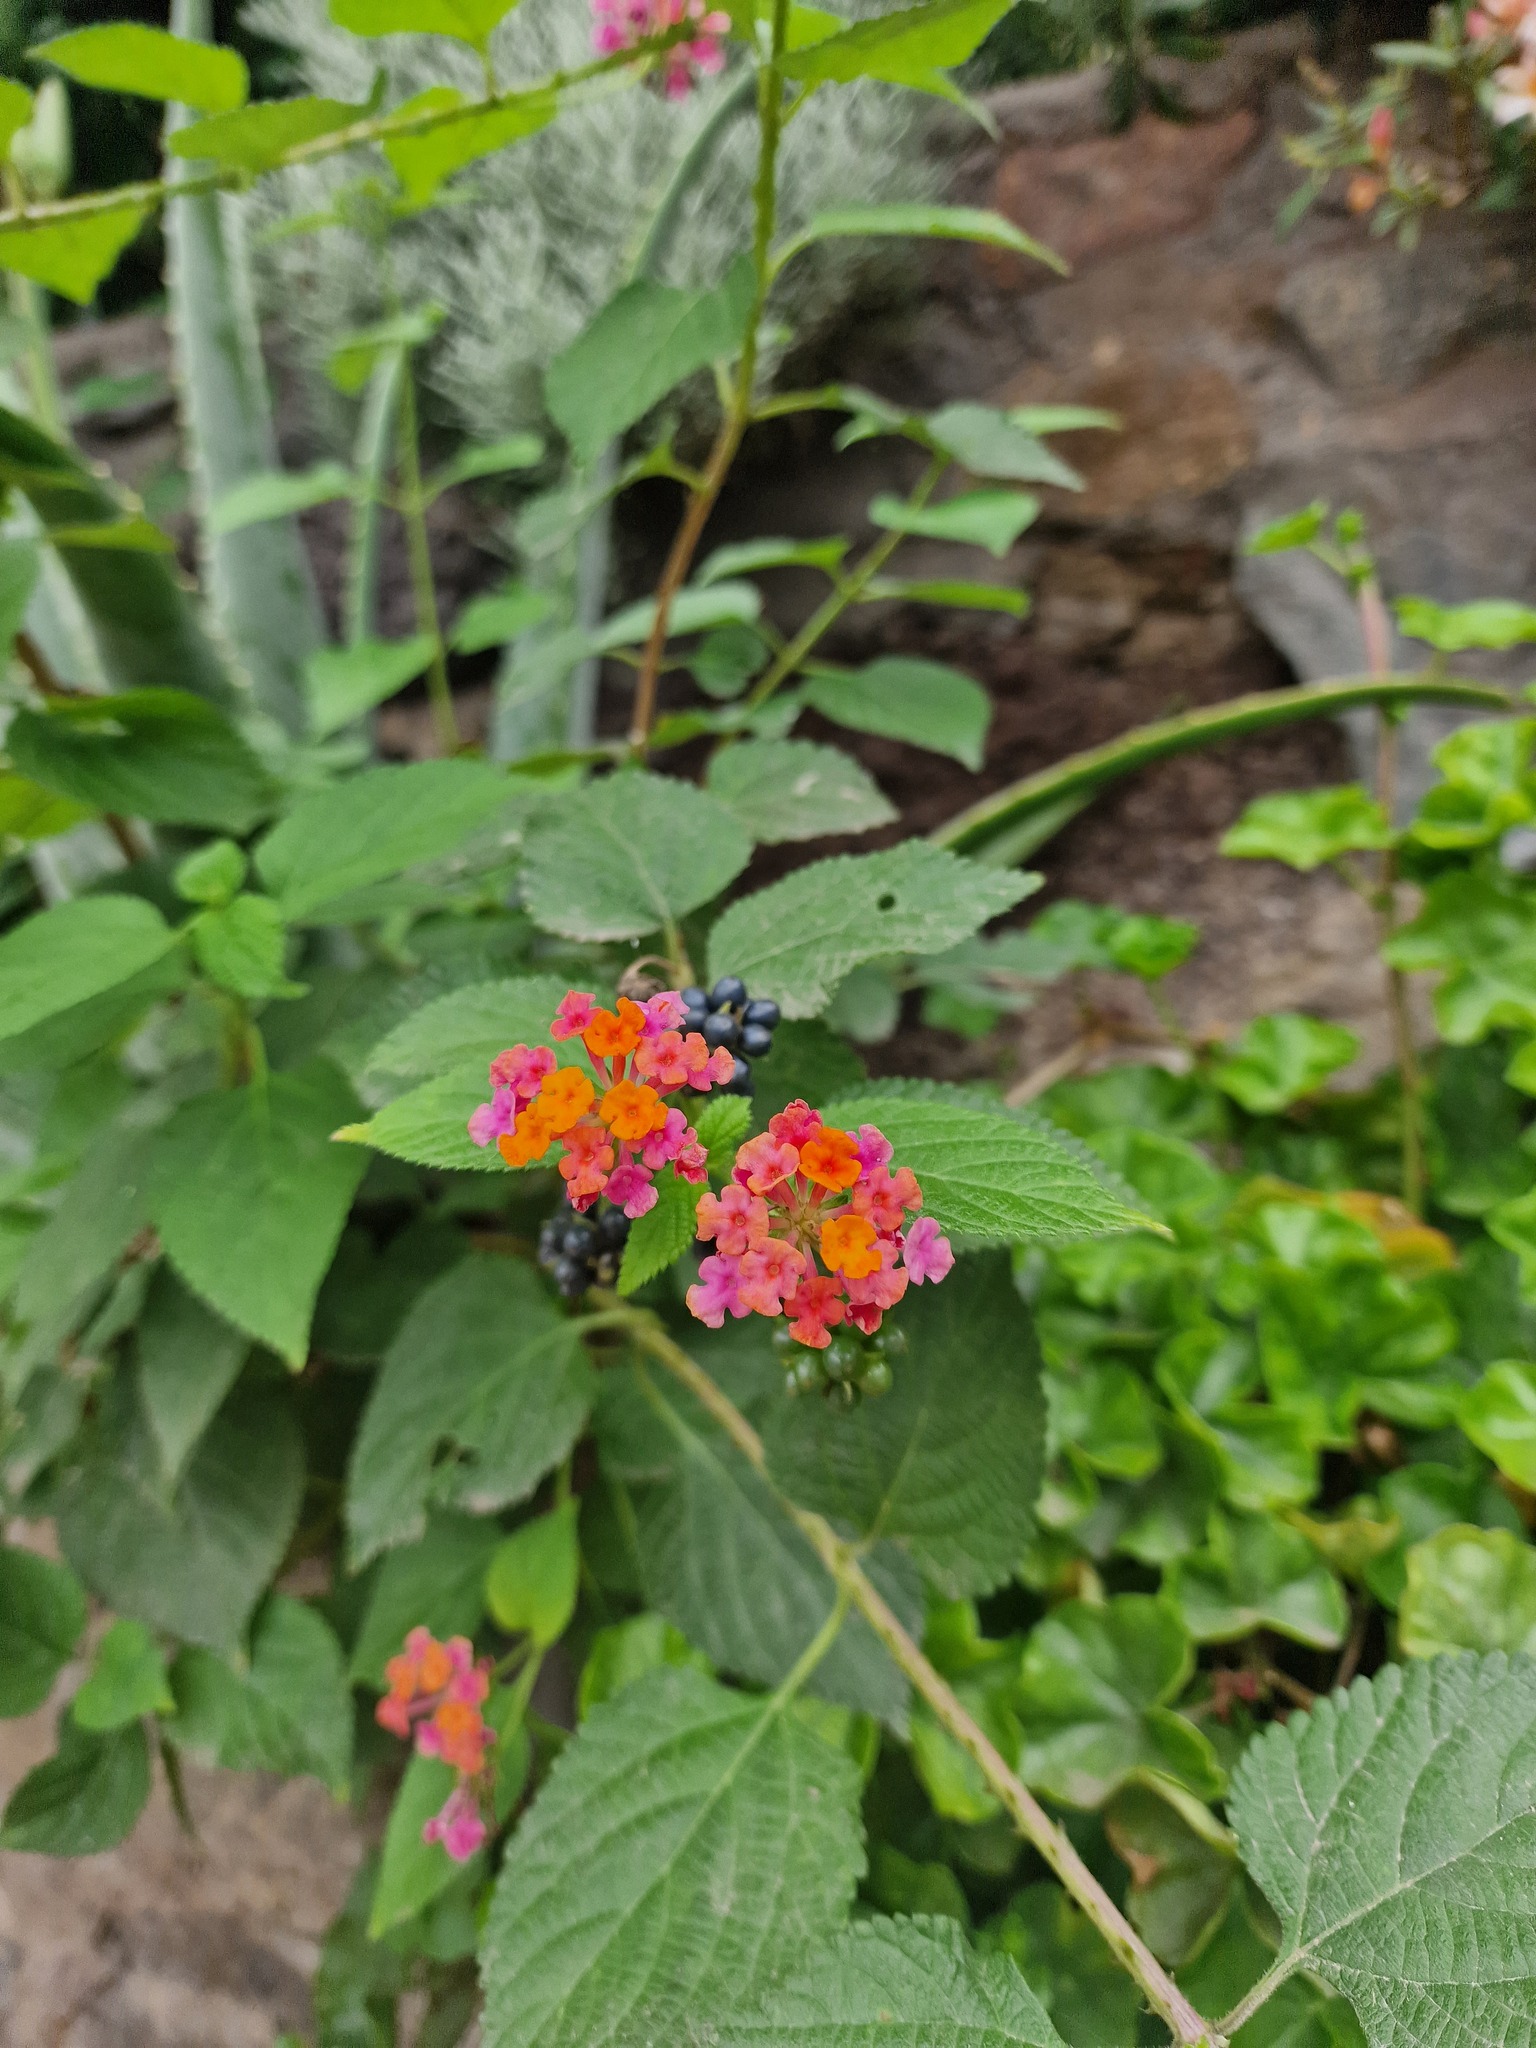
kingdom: Plantae
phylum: Tracheophyta
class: Magnoliopsida
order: Lamiales
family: Verbenaceae
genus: Lantana
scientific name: Lantana camara
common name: Lantana
